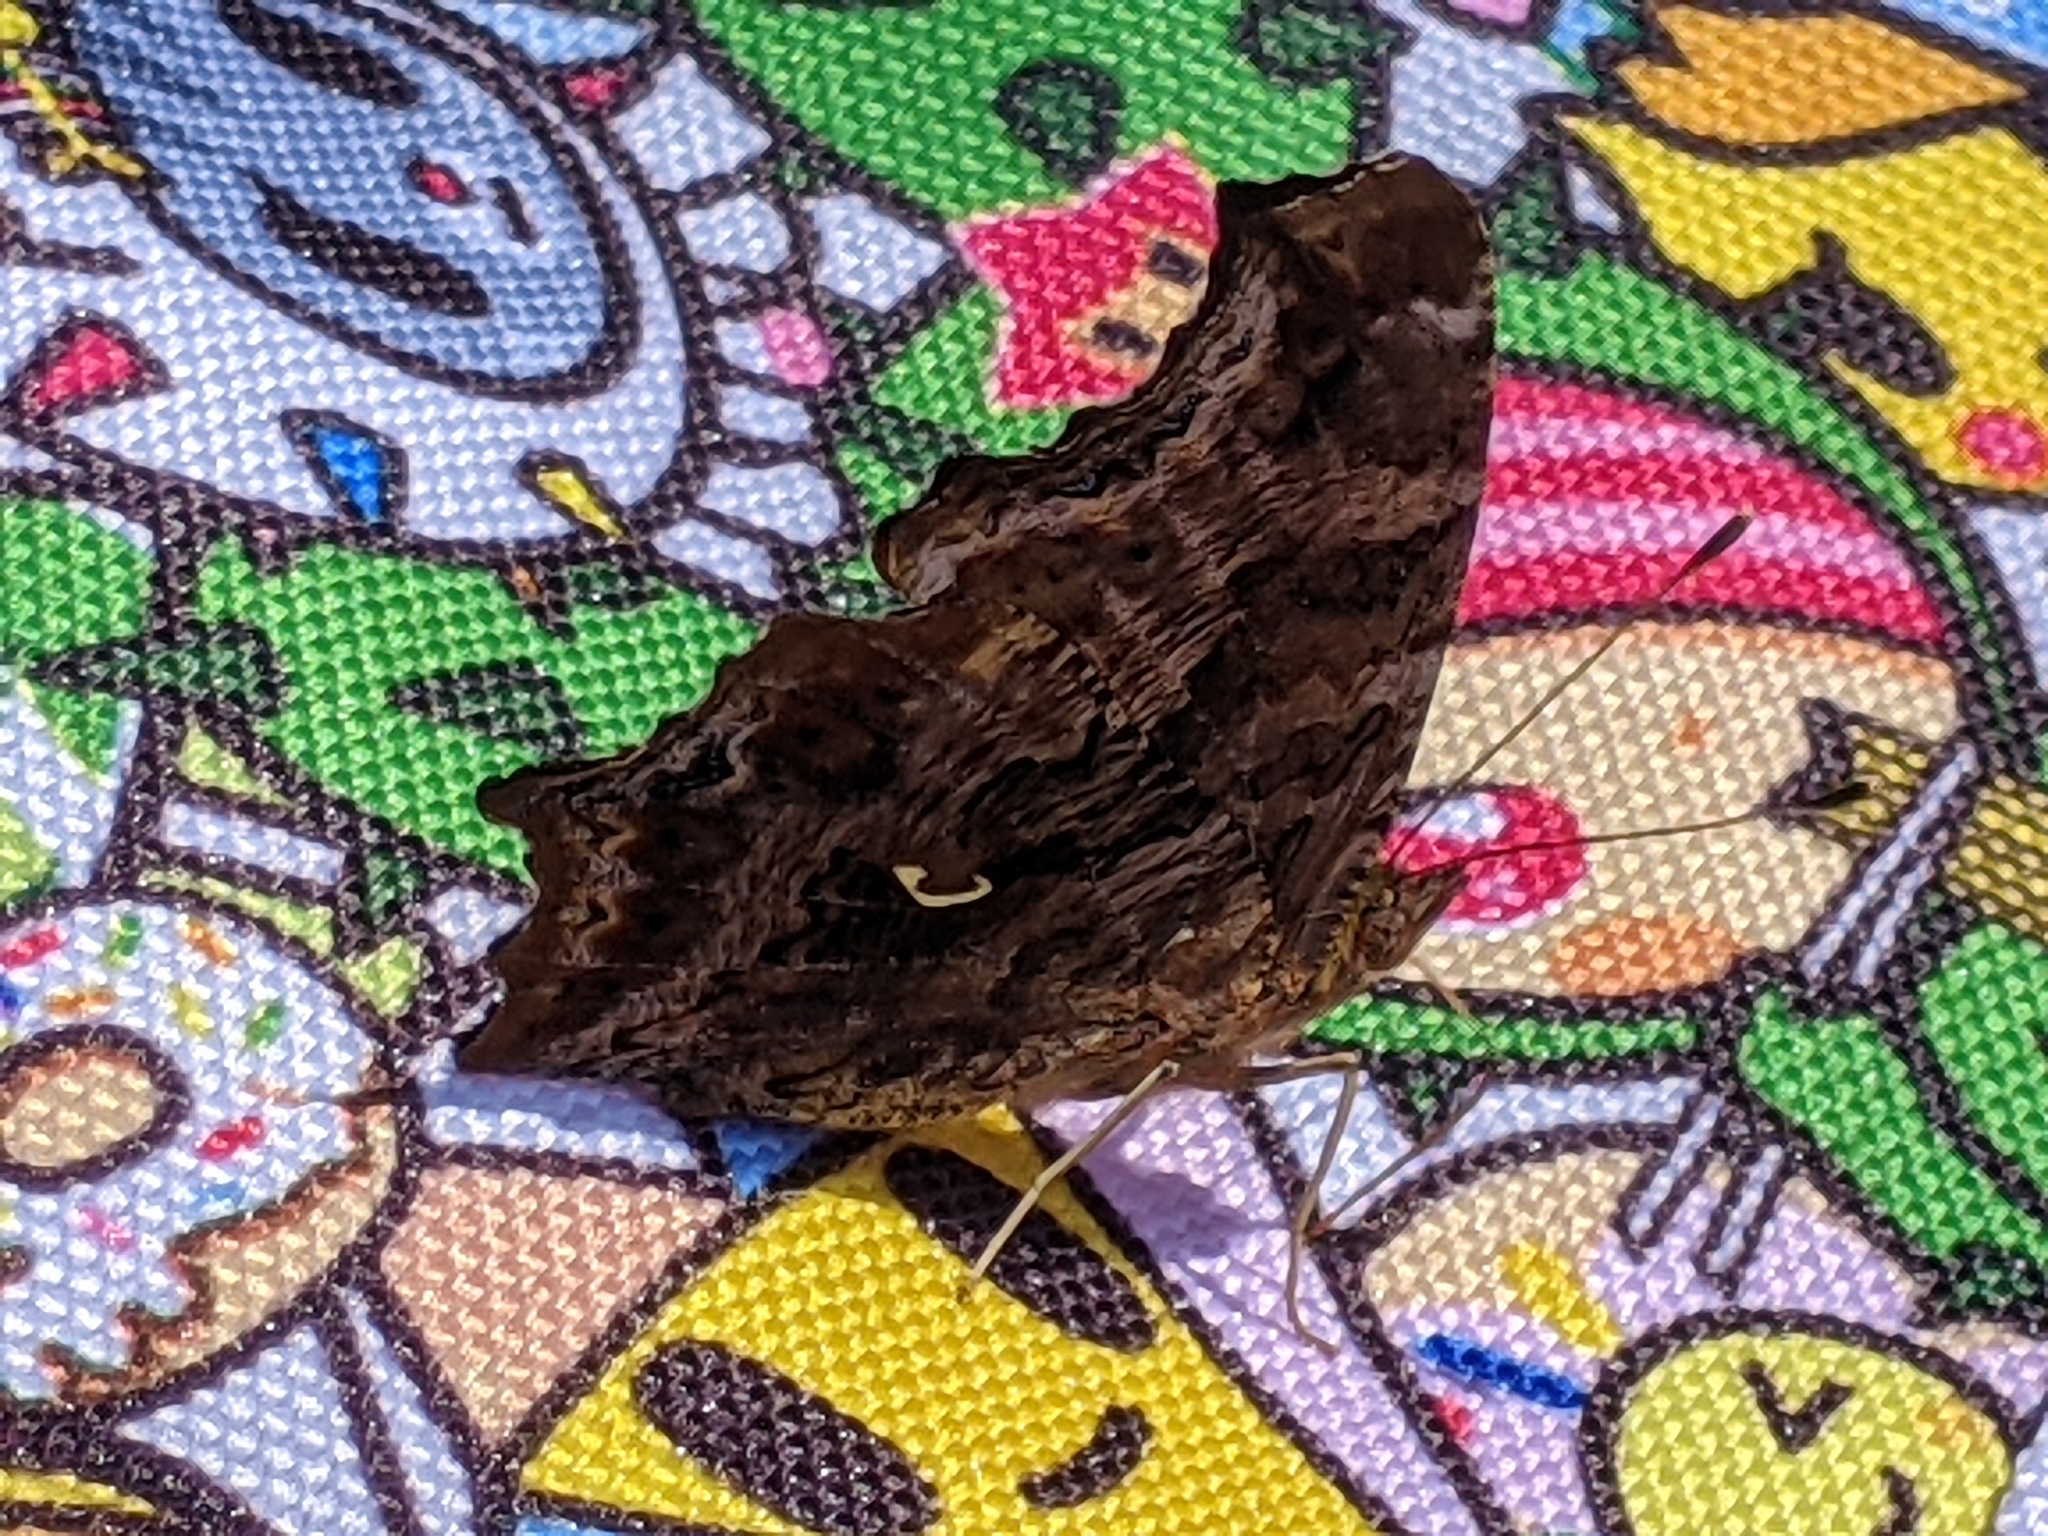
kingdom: Animalia
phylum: Arthropoda
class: Insecta
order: Lepidoptera
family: Nymphalidae
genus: Polygonia
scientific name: Polygonia comma
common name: Eastern comma
